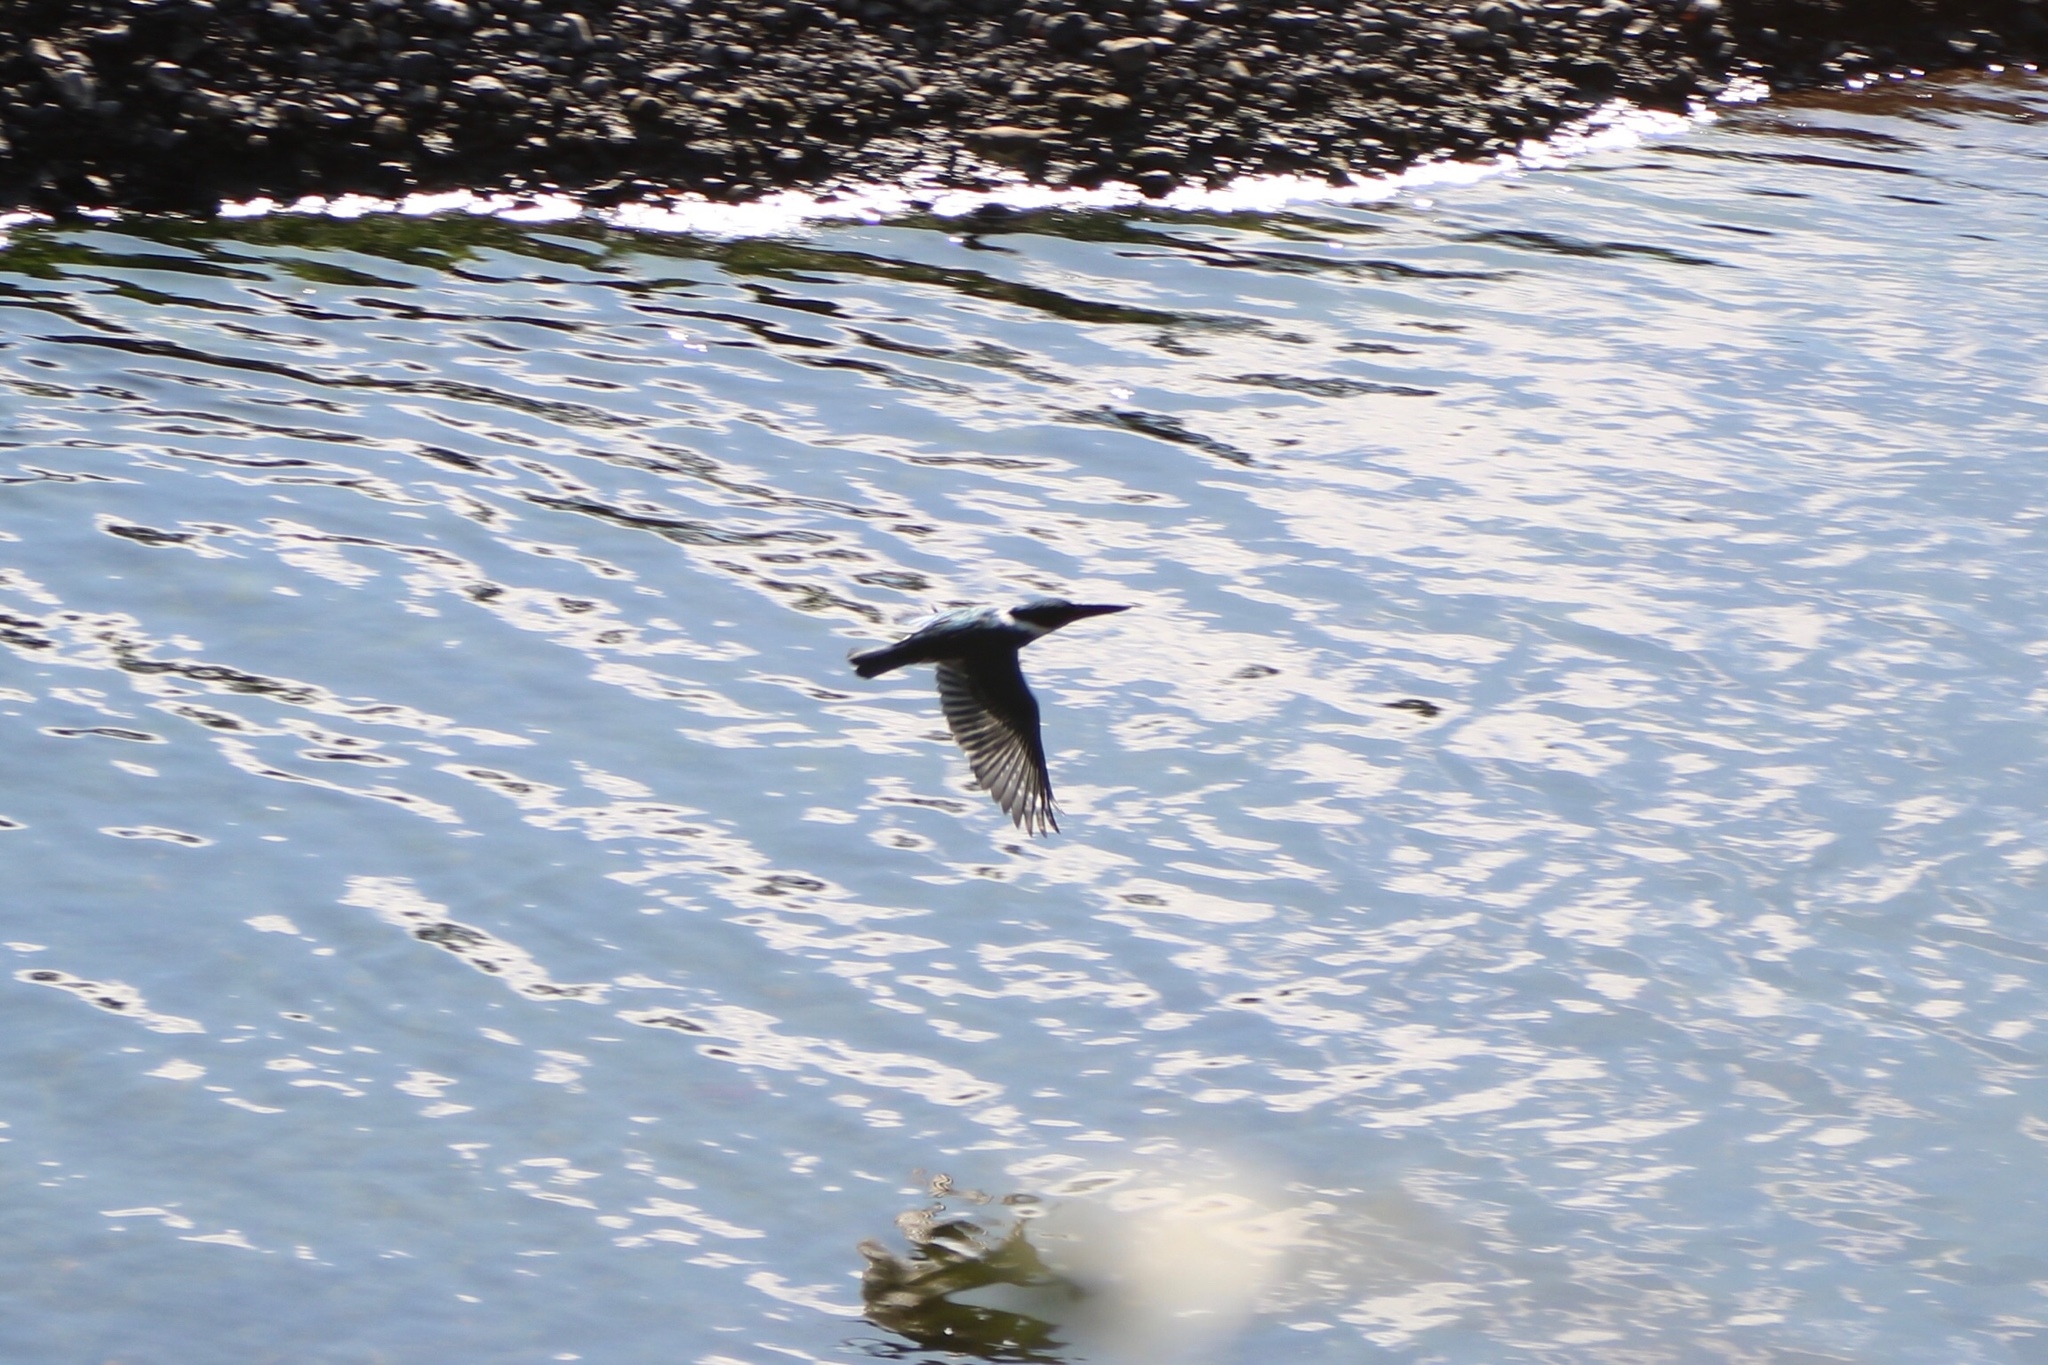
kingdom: Animalia
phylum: Chordata
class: Aves
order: Coraciiformes
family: Alcedinidae
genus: Chloroceryle
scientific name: Chloroceryle amazona
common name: Amazon kingfisher
